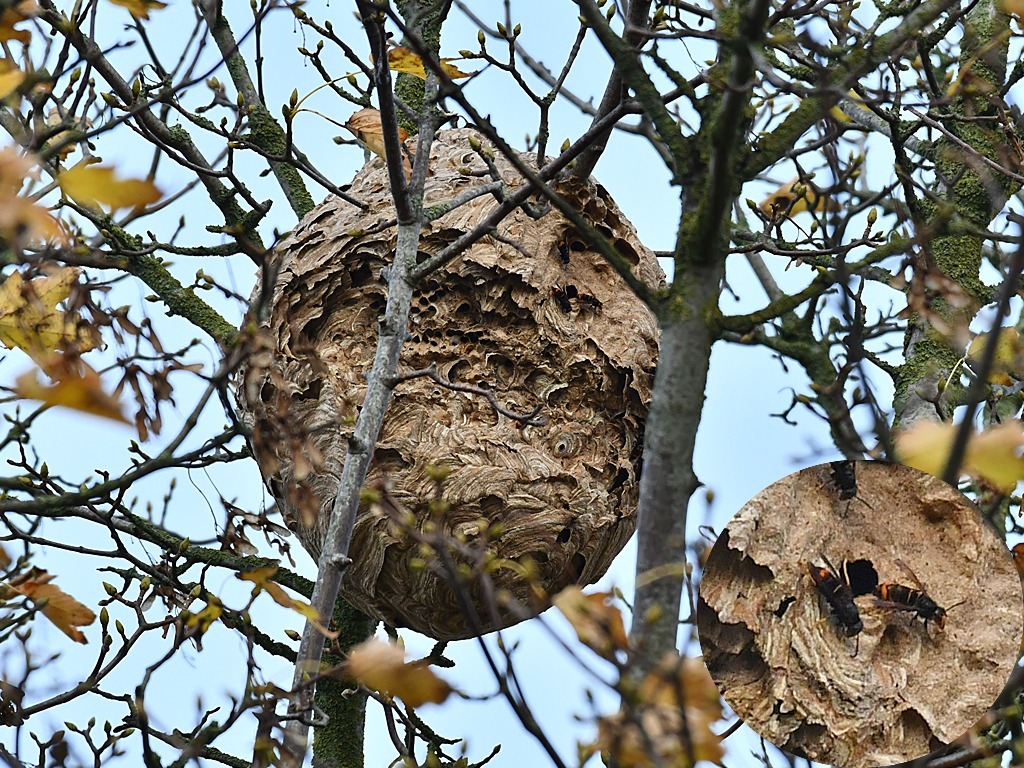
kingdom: Animalia
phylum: Arthropoda
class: Insecta
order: Hymenoptera
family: Vespidae
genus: Vespa
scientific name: Vespa velutina
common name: Asian hornet
